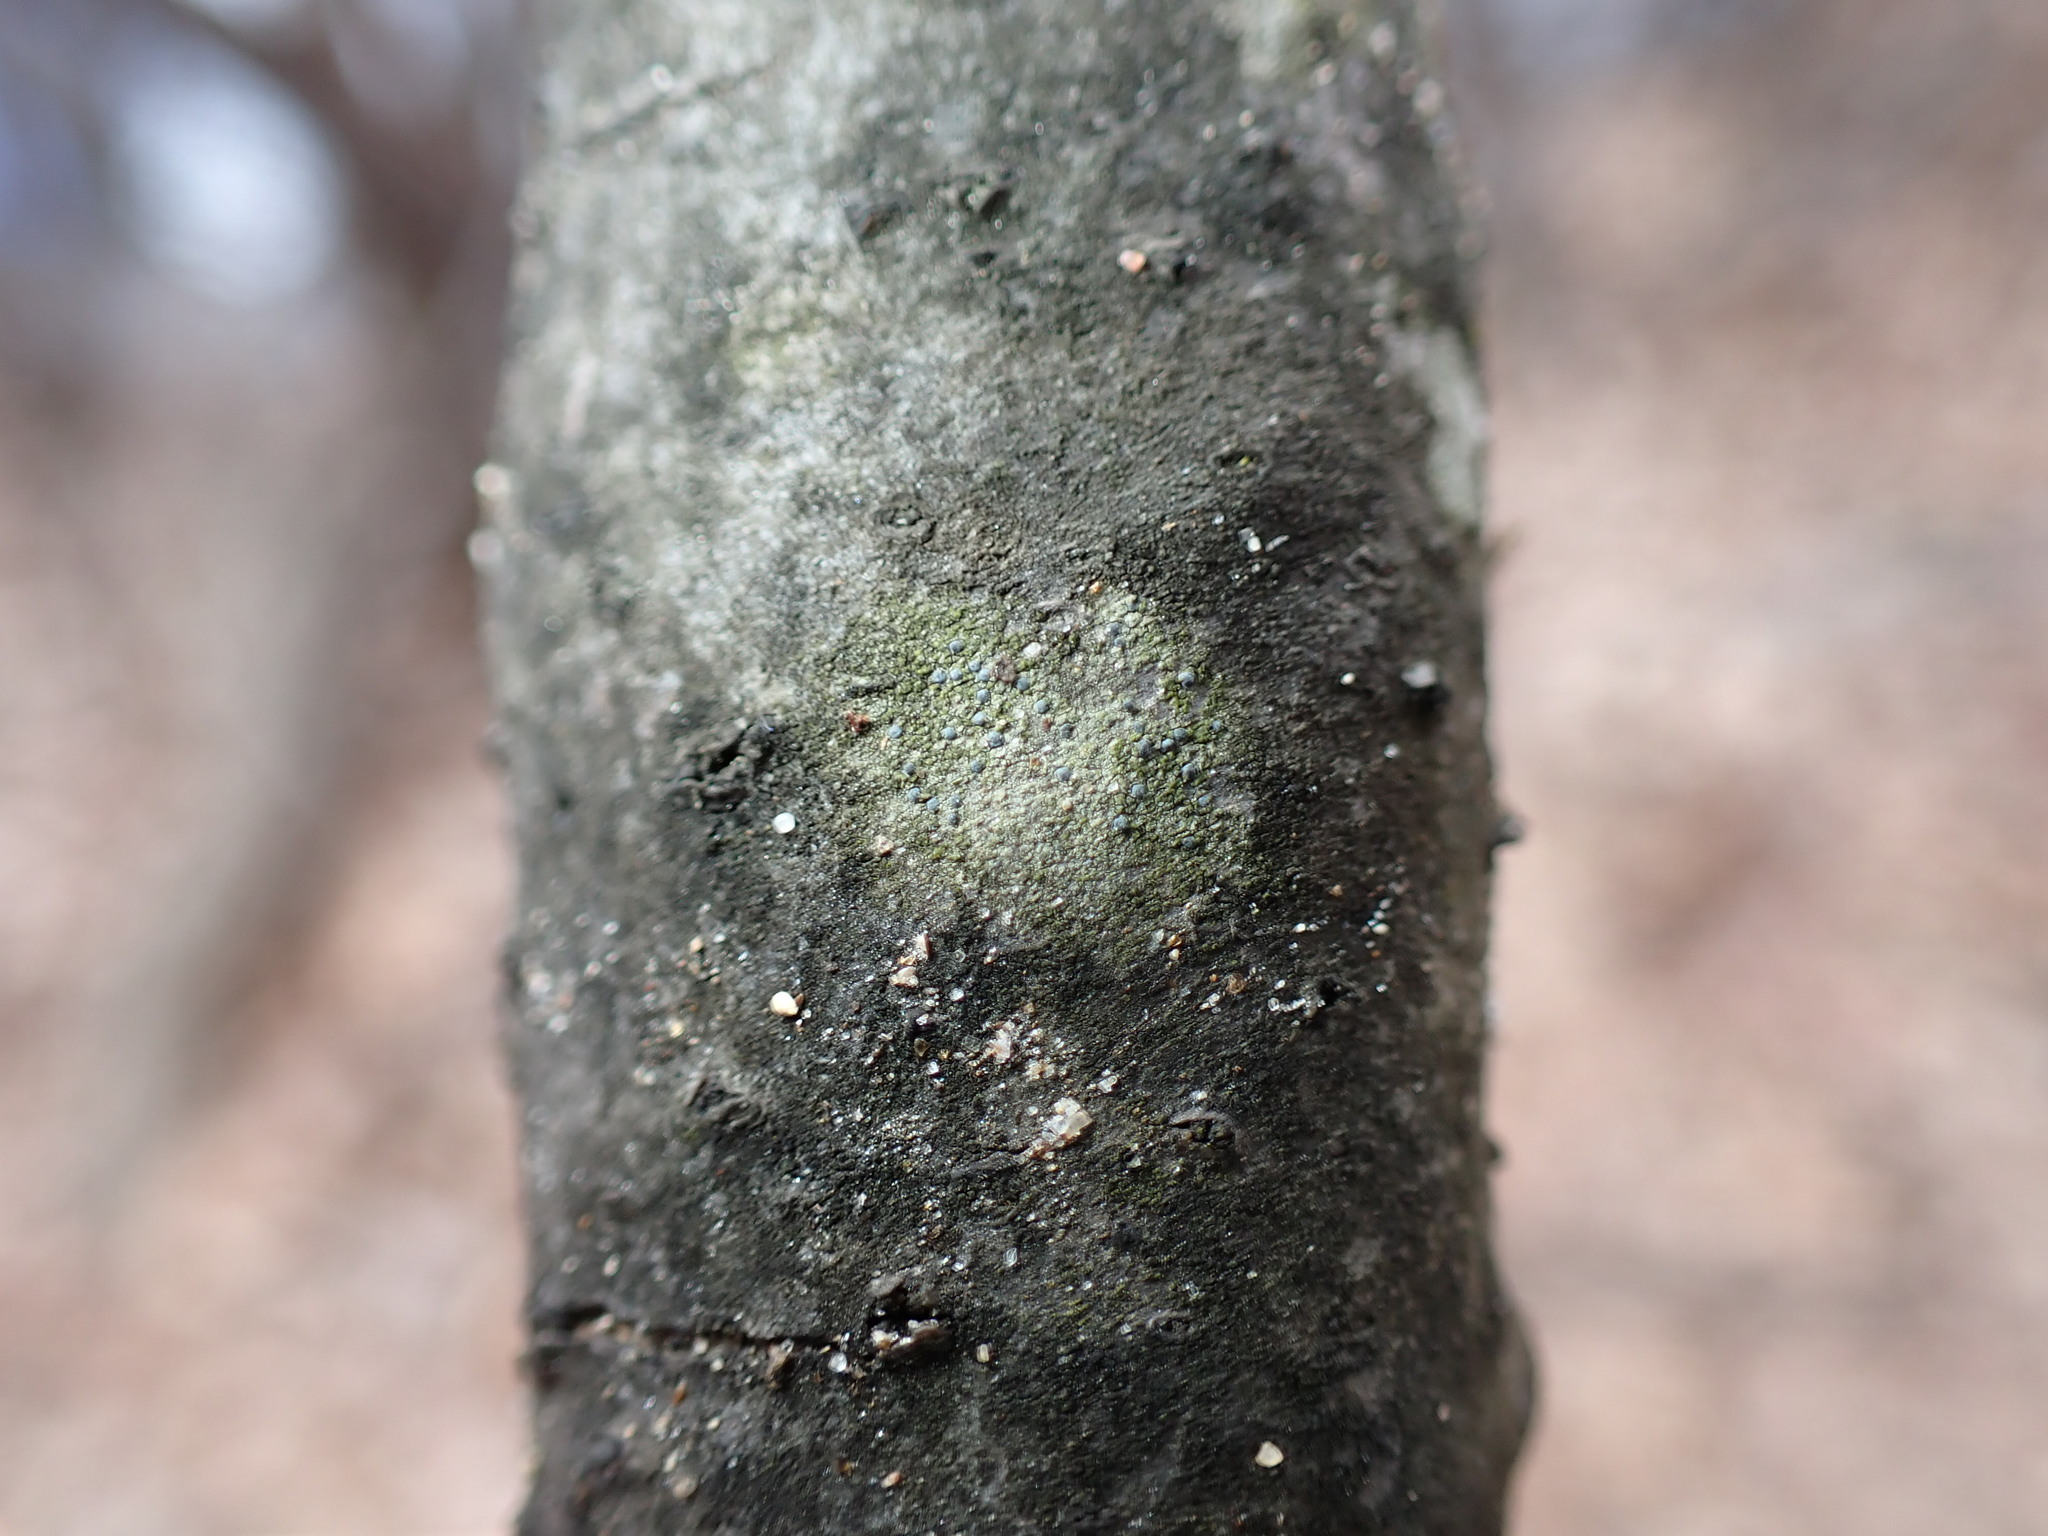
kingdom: Fungi
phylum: Ascomycota
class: Arthoniomycetes
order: Arthoniales
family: Chrysotrichaceae
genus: Chrysothrix
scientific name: Chrysothrix caesia
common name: Frosted comma lichen
